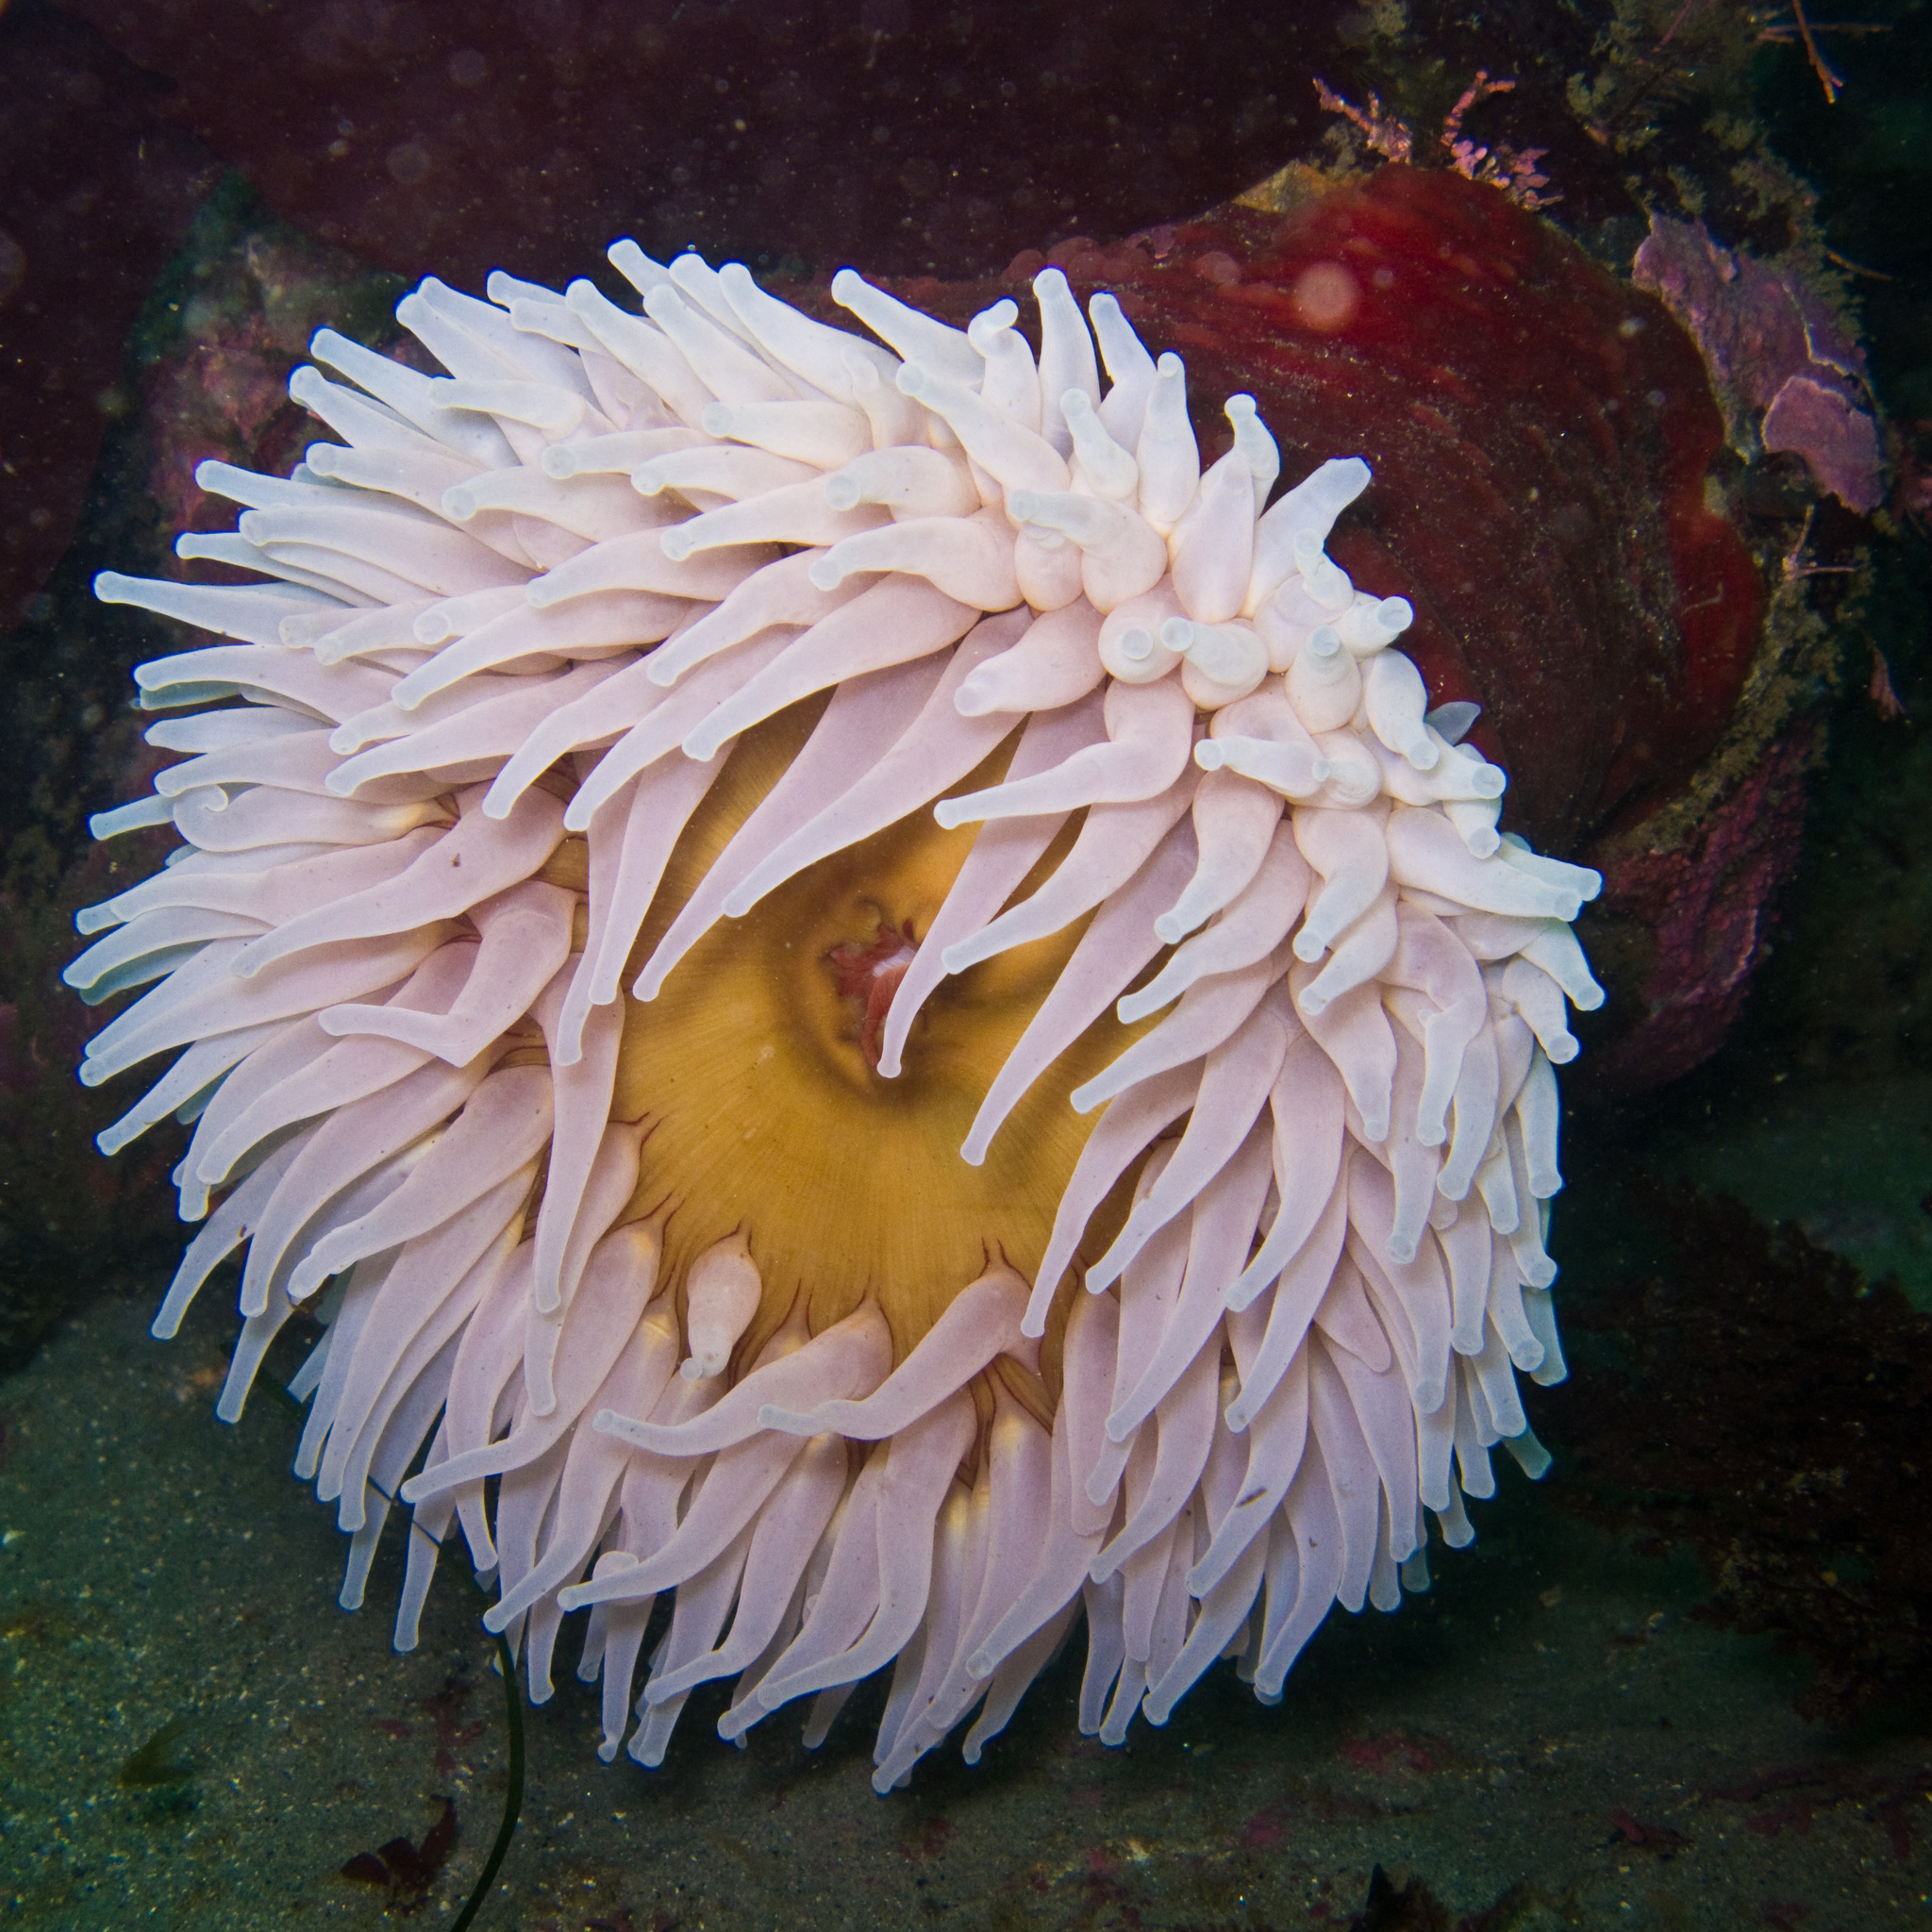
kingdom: Animalia
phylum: Cnidaria
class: Anthozoa
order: Actiniaria
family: Actiniidae
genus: Urticina
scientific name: Urticina piscivora
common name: Velvety red anemone
